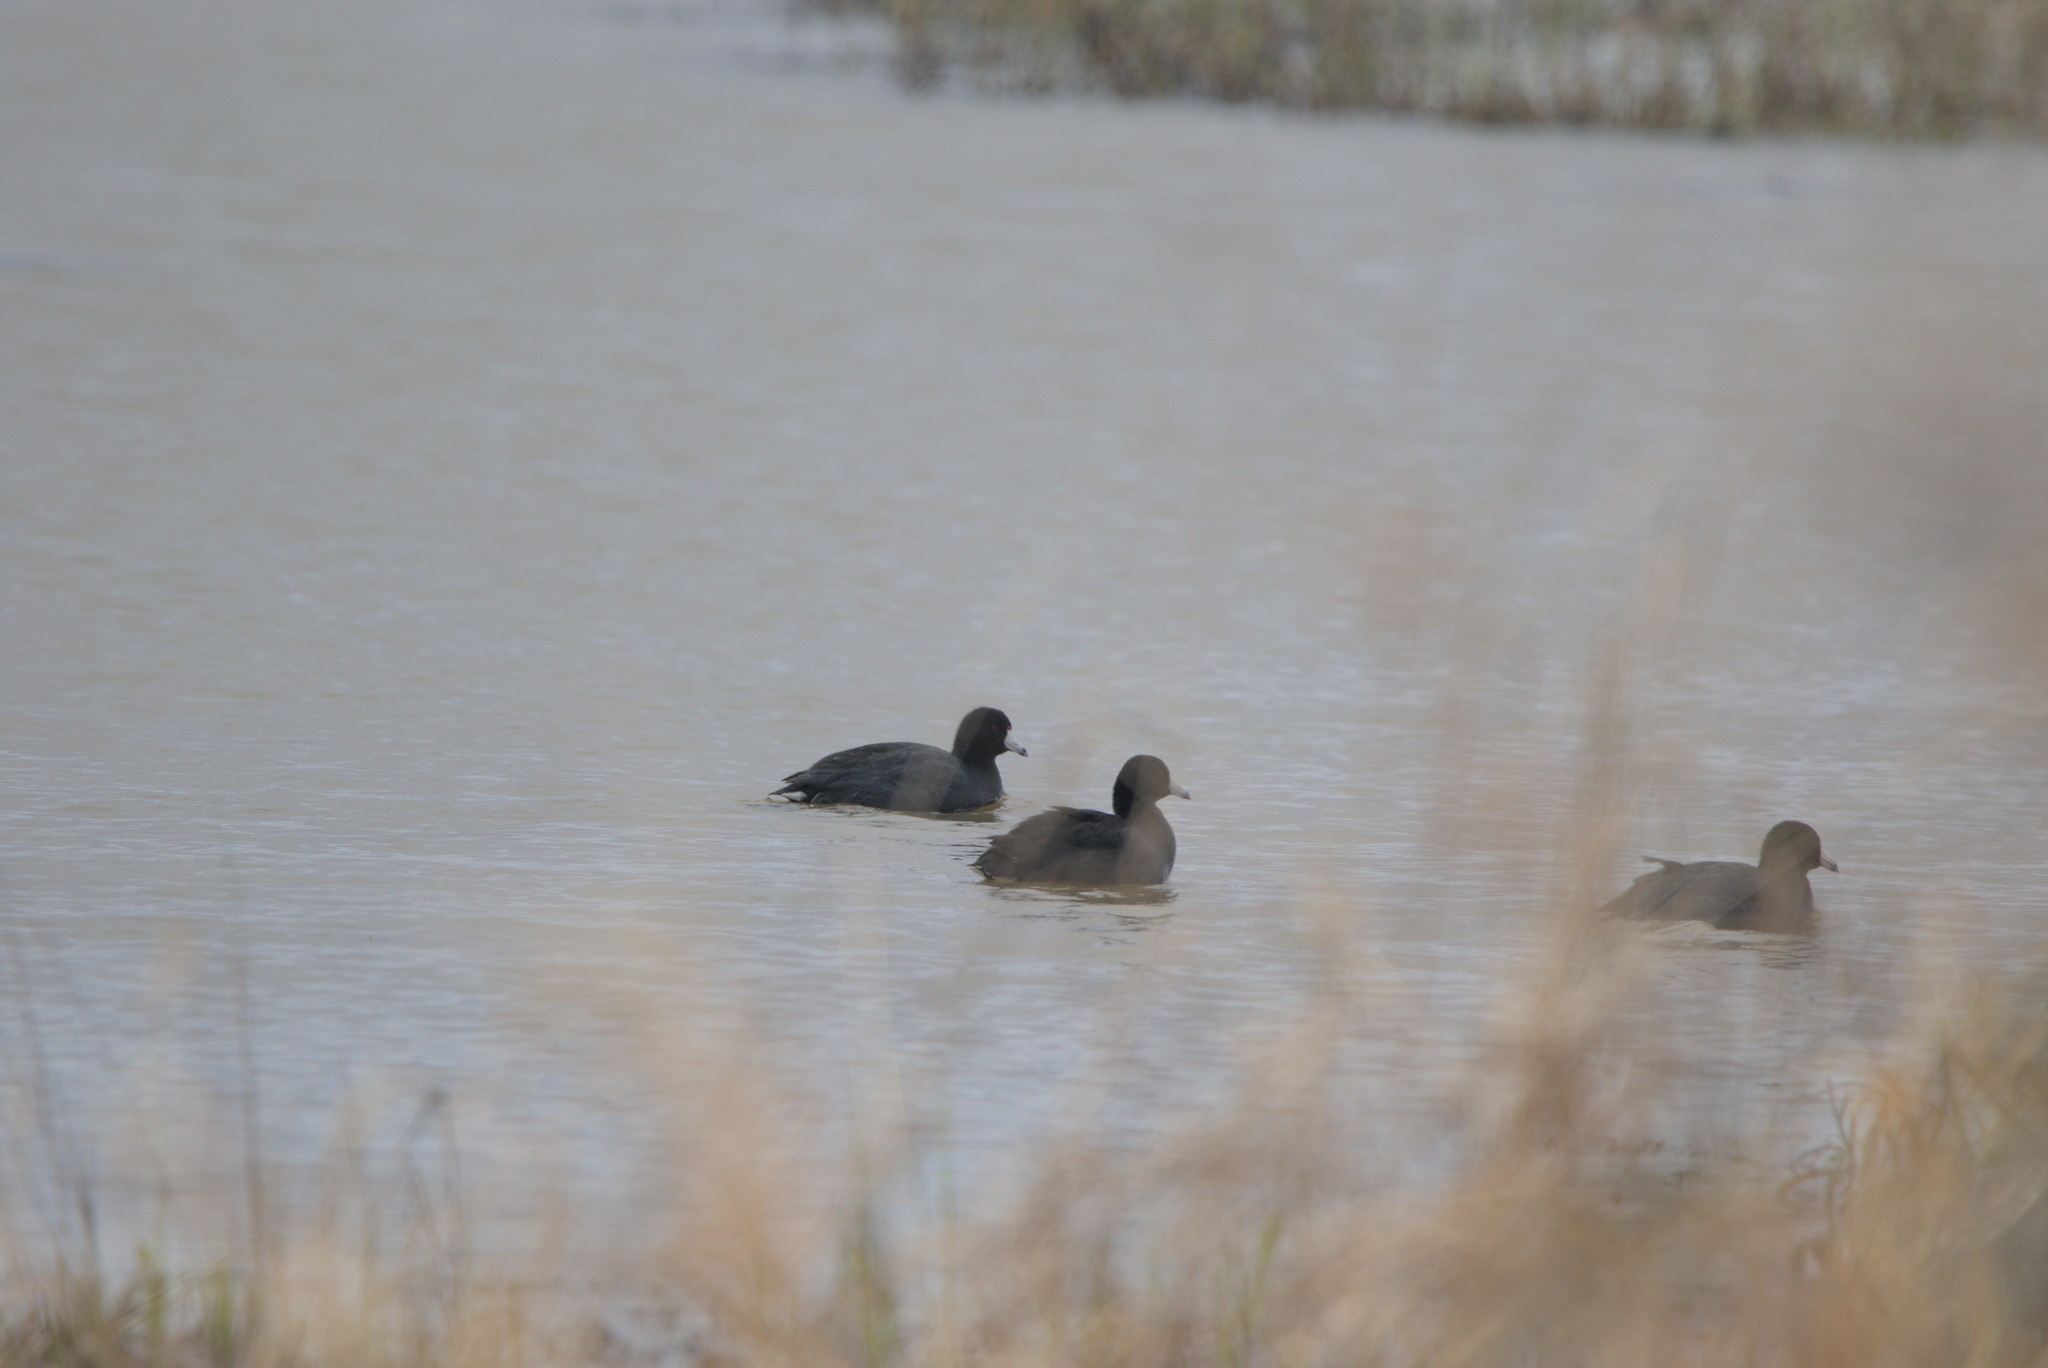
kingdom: Animalia
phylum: Chordata
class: Aves
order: Gruiformes
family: Rallidae
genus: Fulica
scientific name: Fulica americana
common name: American coot
